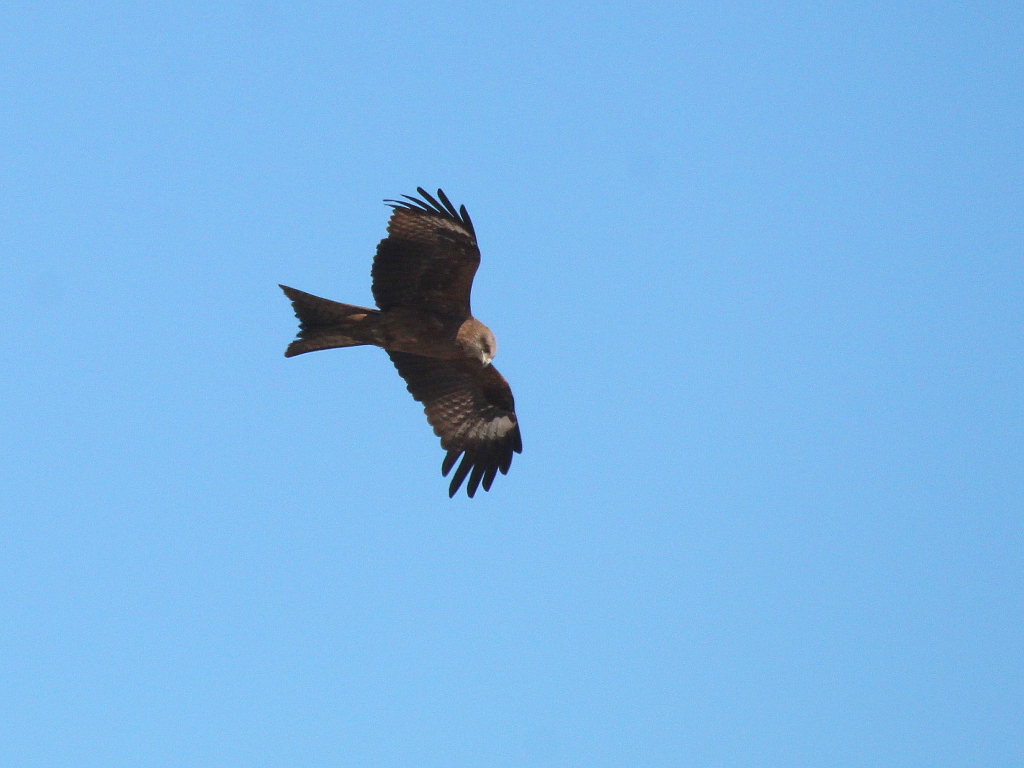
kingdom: Animalia
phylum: Chordata
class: Aves
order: Accipitriformes
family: Accipitridae
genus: Milvus
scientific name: Milvus migrans
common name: Black kite
